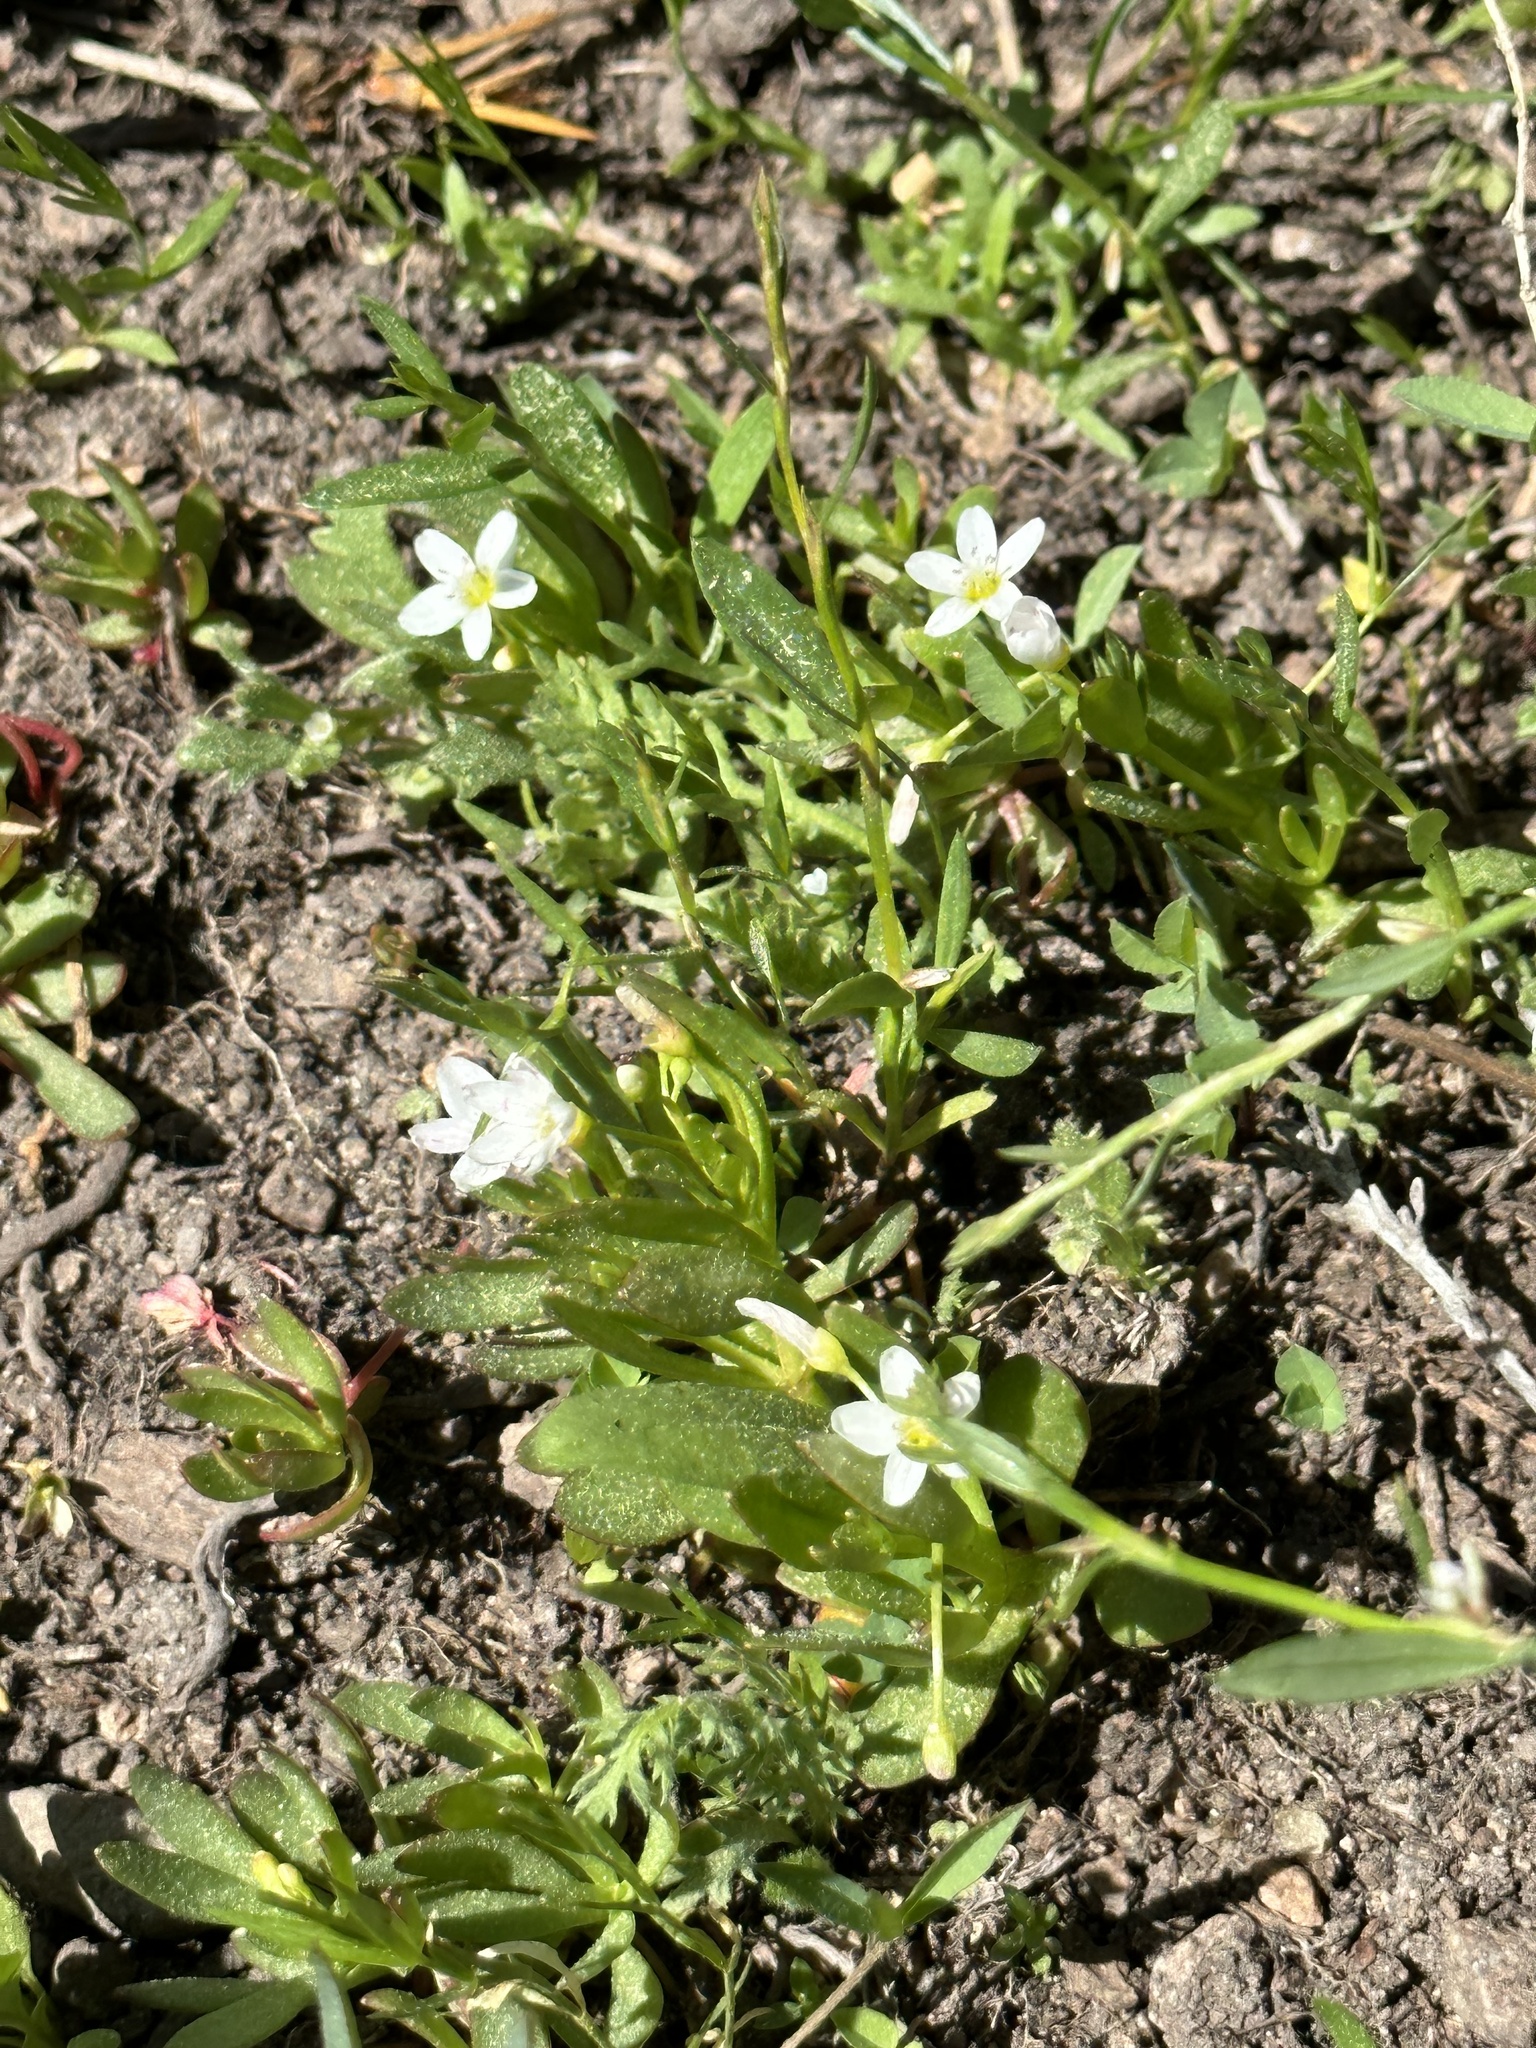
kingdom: Plantae
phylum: Tracheophyta
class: Magnoliopsida
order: Caryophyllales
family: Montiaceae
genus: Montia
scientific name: Montia chamissoi
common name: Chamisso's candyflower
